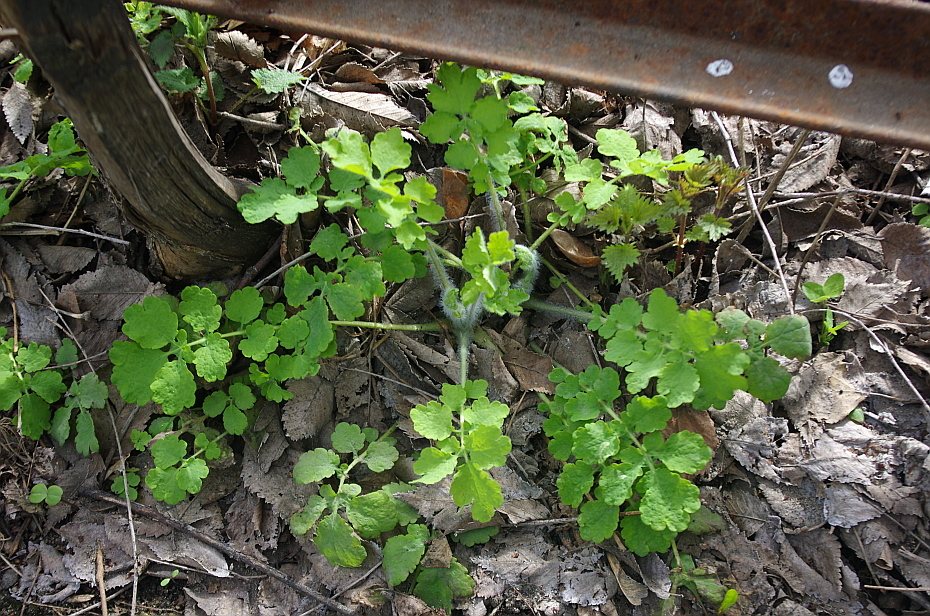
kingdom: Plantae
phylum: Tracheophyta
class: Magnoliopsida
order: Ranunculales
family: Papaveraceae
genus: Chelidonium
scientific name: Chelidonium majus
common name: Greater celandine
